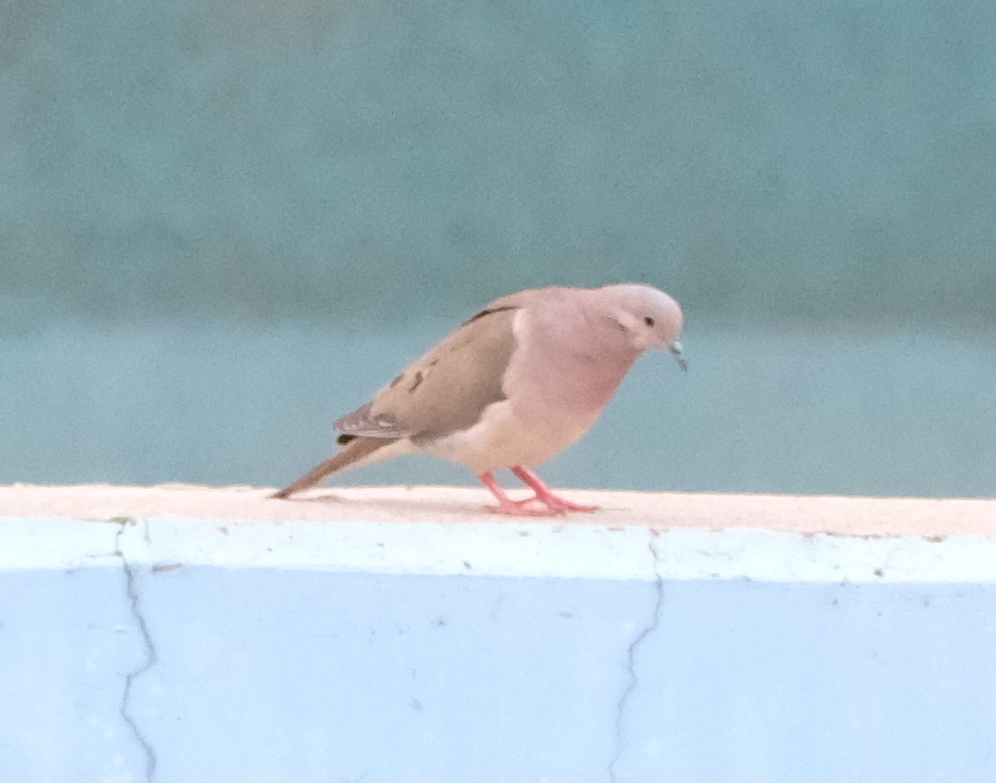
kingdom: Animalia
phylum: Chordata
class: Aves
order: Columbiformes
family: Columbidae
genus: Zenaida
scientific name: Zenaida auriculata
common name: Eared dove
